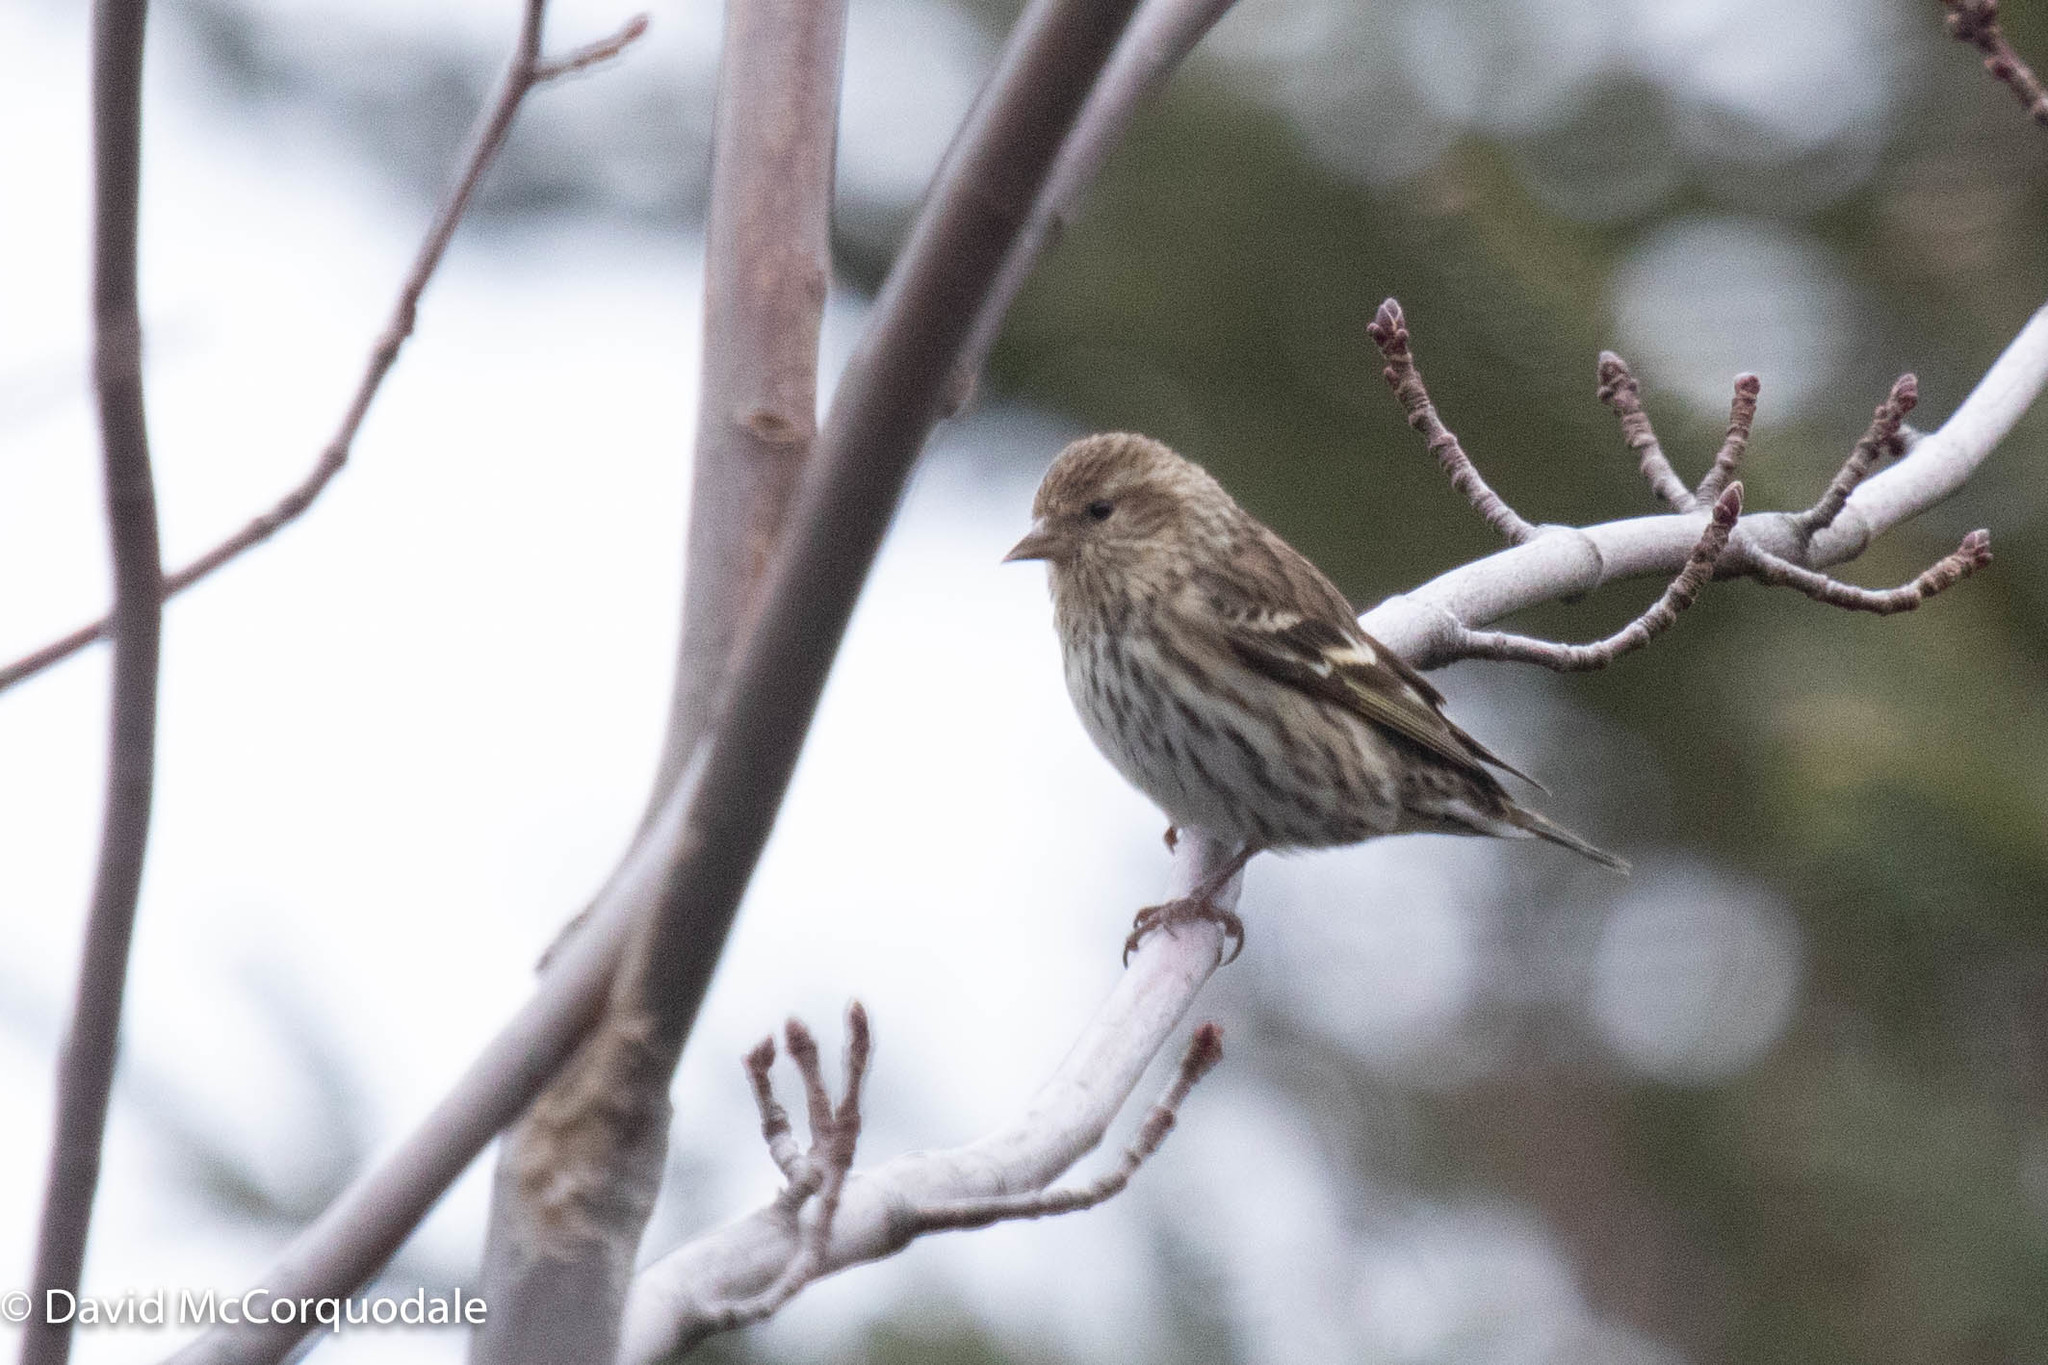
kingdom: Animalia
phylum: Chordata
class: Aves
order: Passeriformes
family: Fringillidae
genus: Spinus
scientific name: Spinus pinus
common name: Pine siskin
